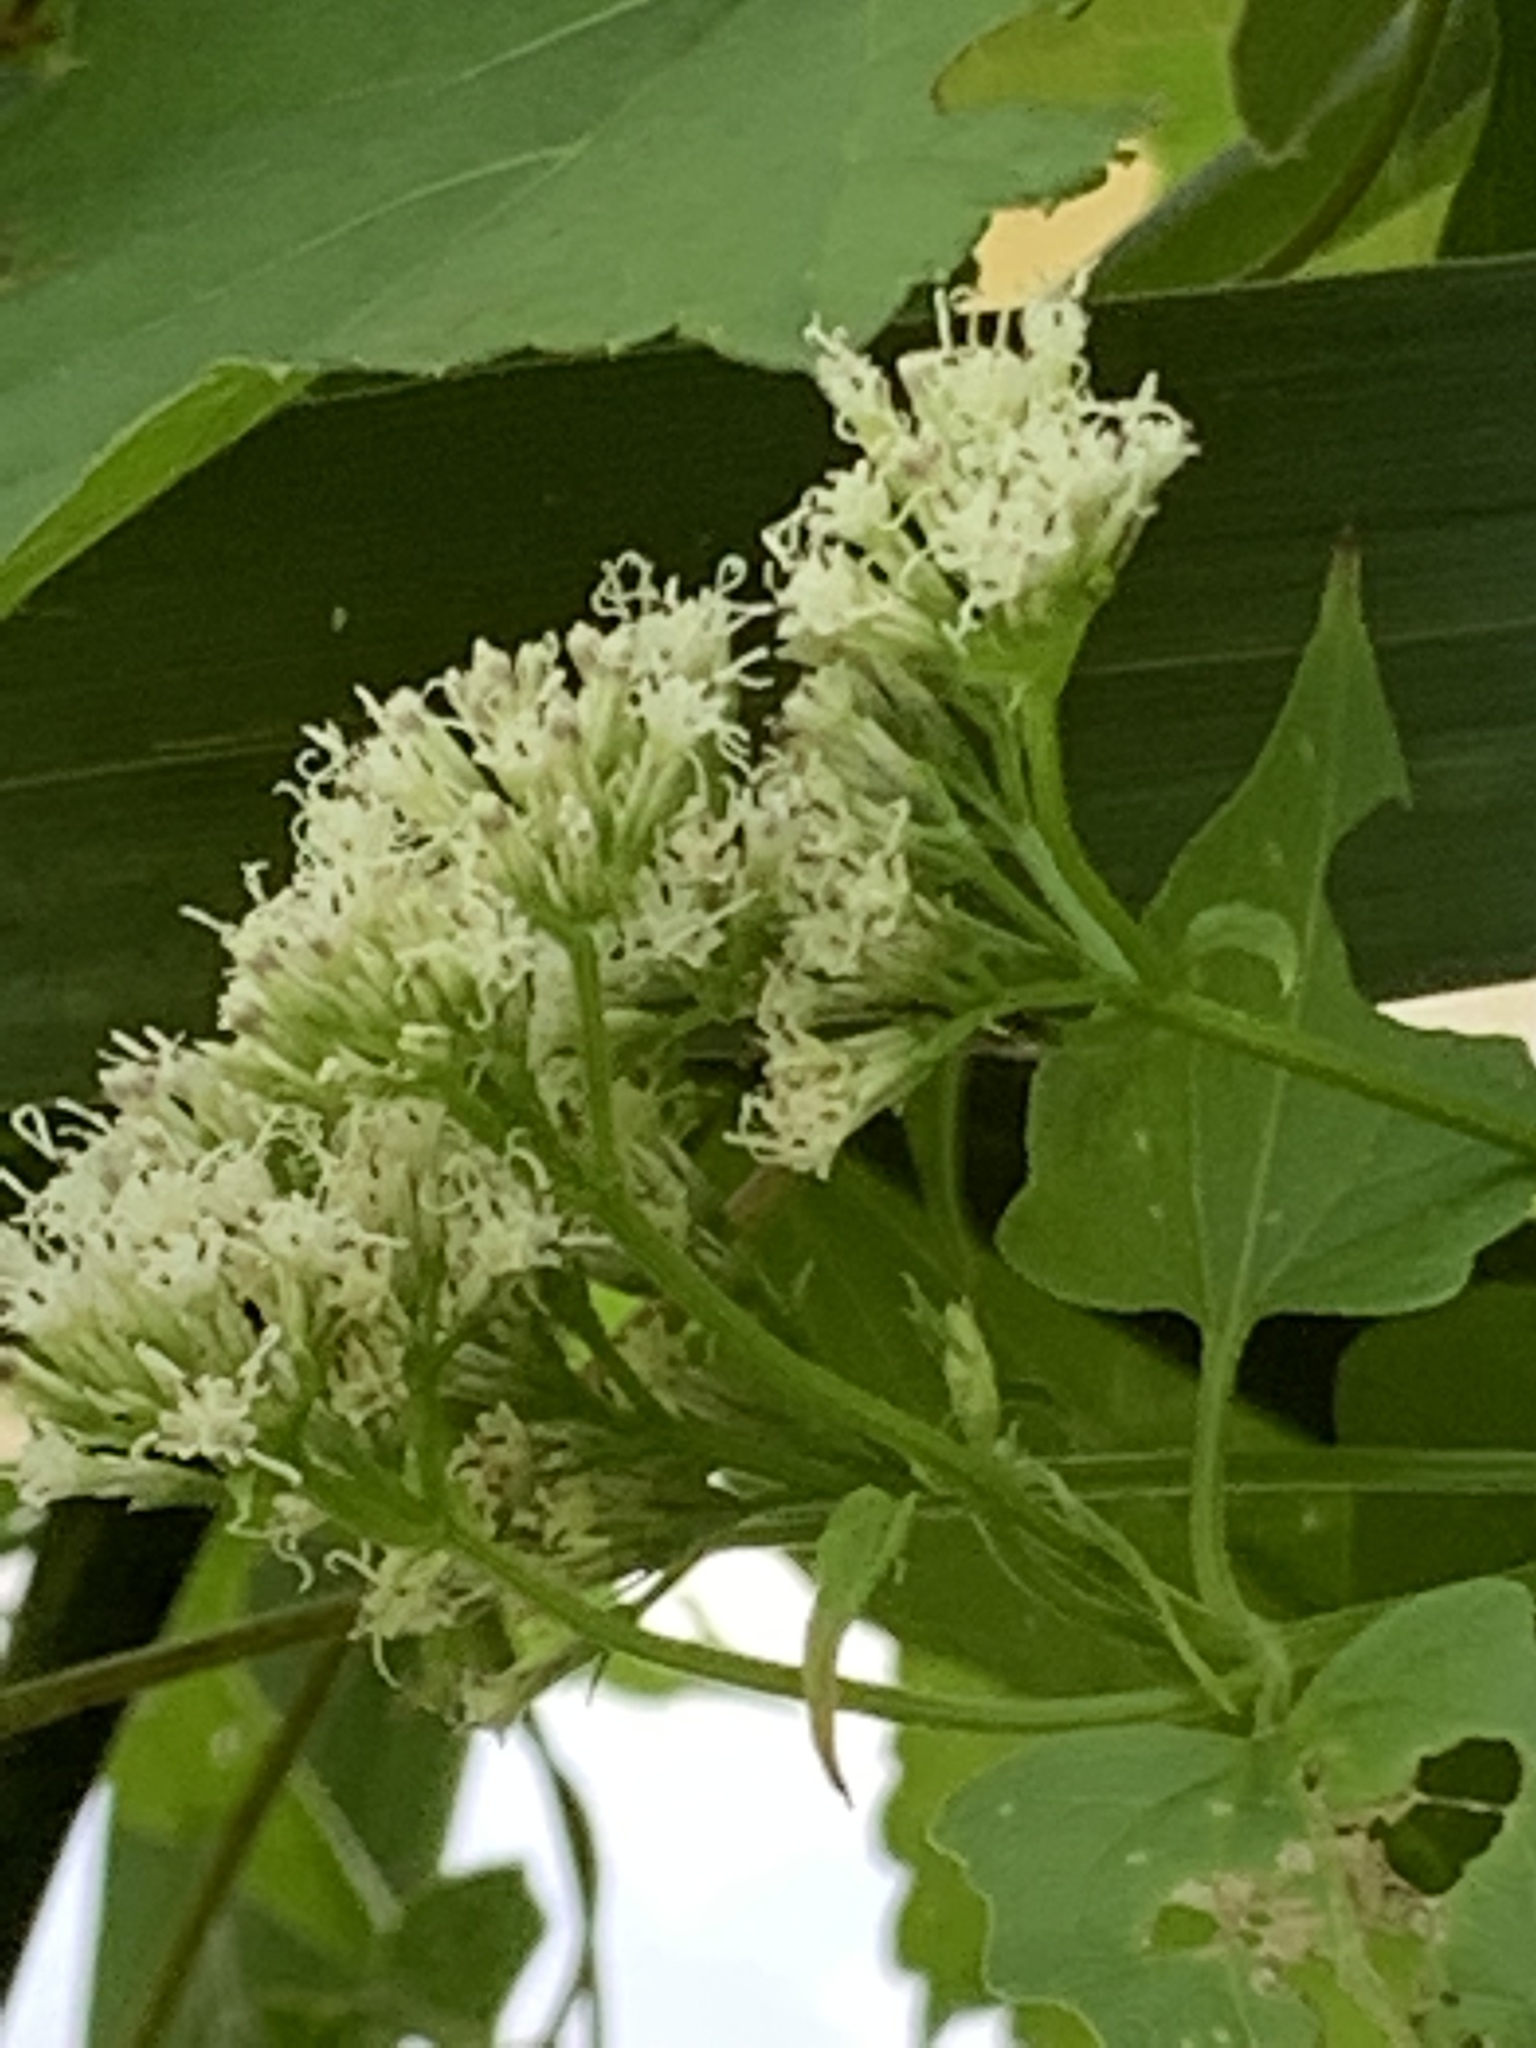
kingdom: Plantae
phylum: Tracheophyta
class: Magnoliopsida
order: Asterales
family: Asteraceae
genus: Mikania
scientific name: Mikania scandens
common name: Climbing hempvine
